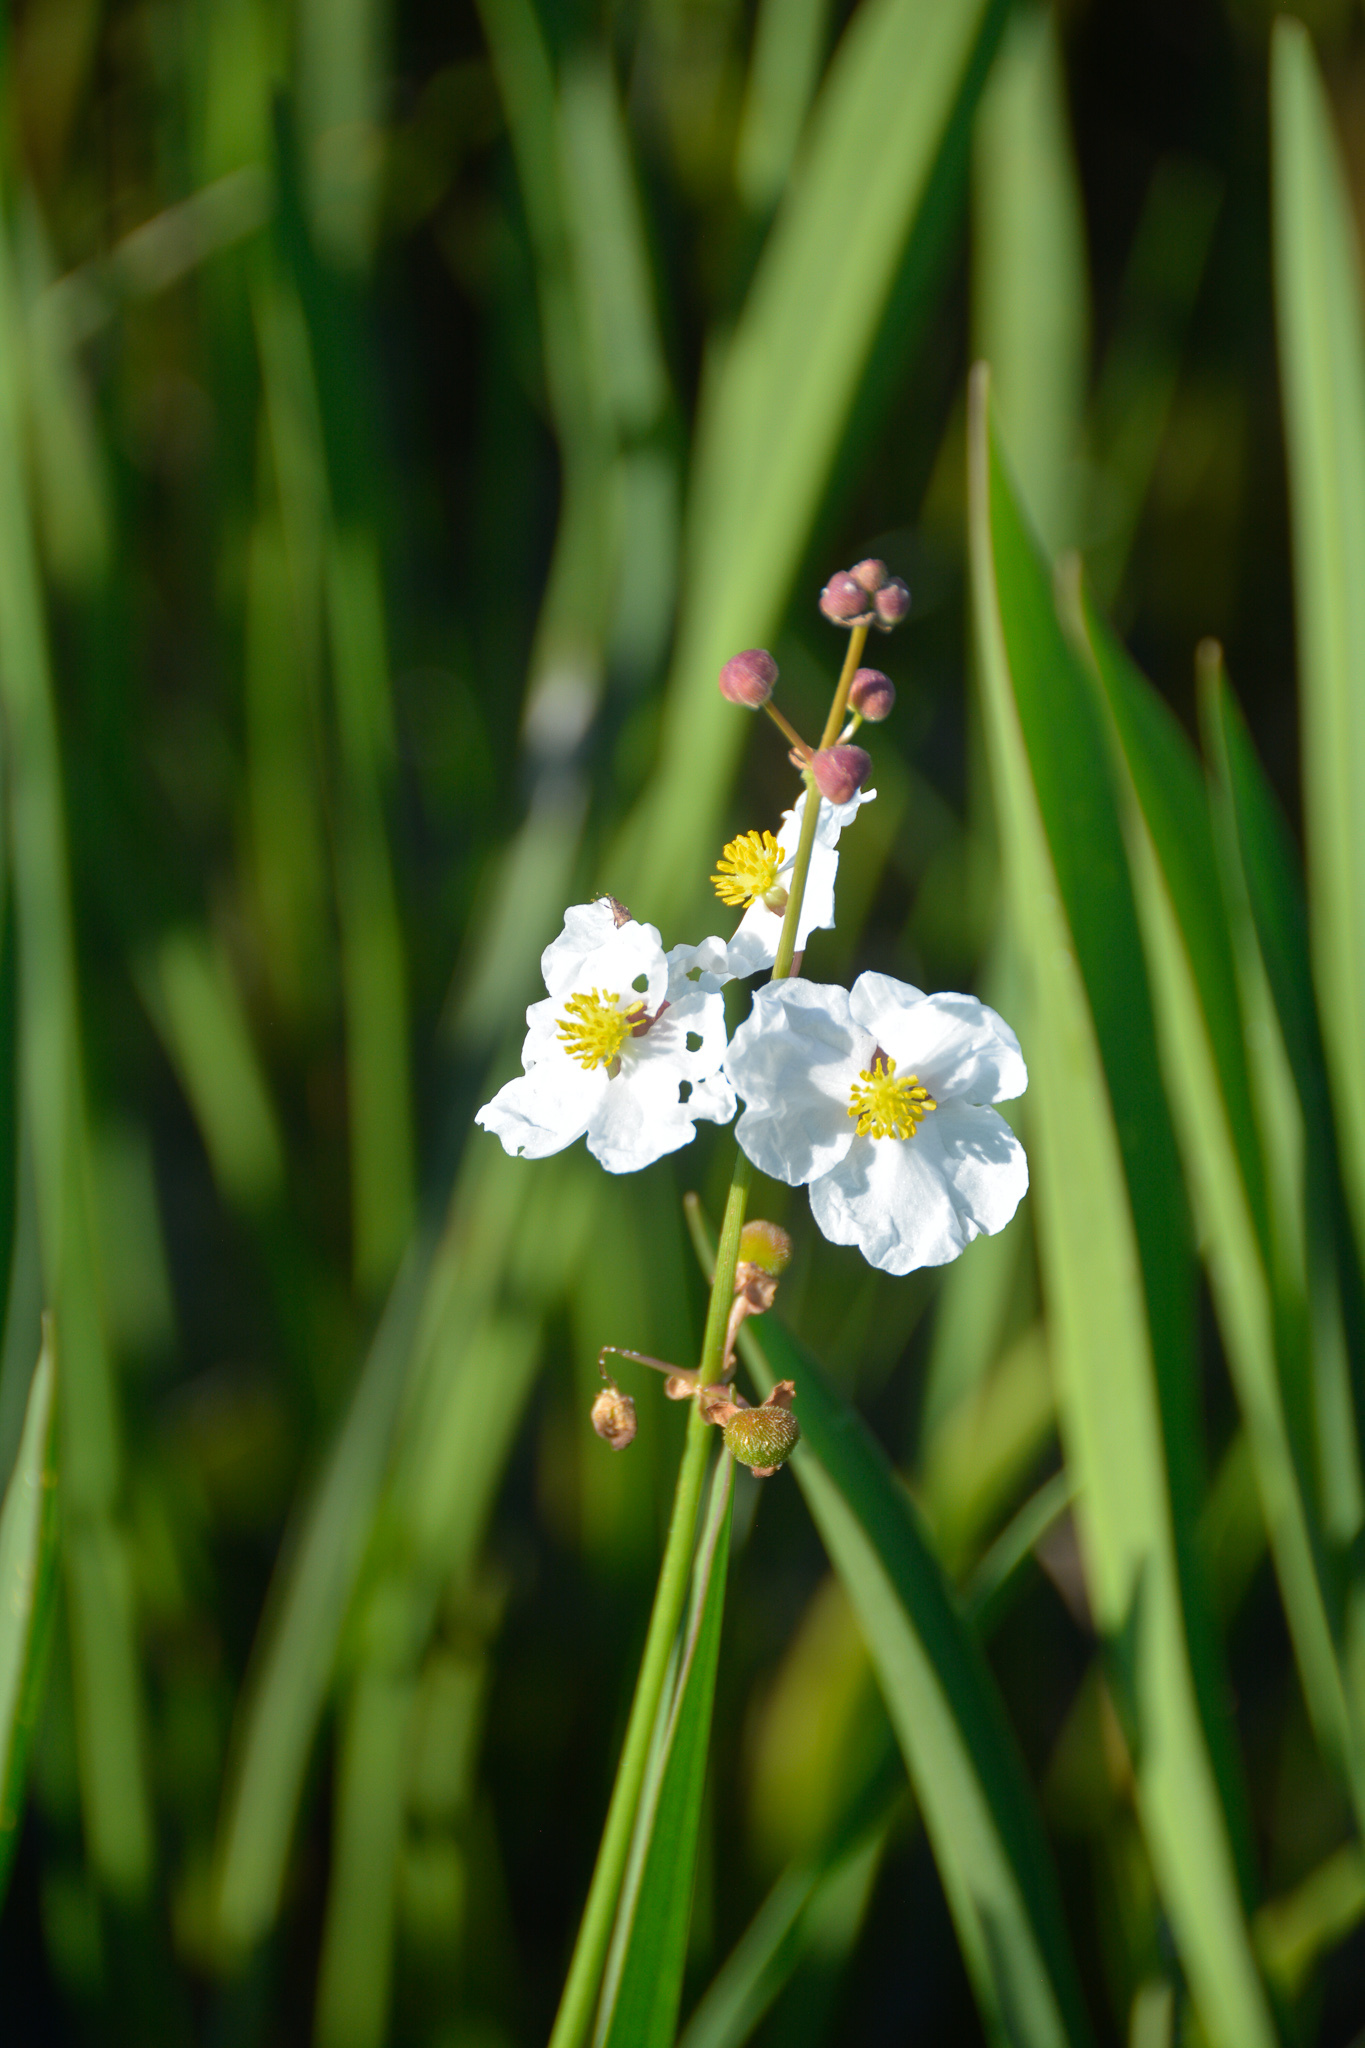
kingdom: Plantae
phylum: Tracheophyta
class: Liliopsida
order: Alismatales
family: Alismataceae
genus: Sagittaria
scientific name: Sagittaria lancifolia
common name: Lance-leaf arrowhead
